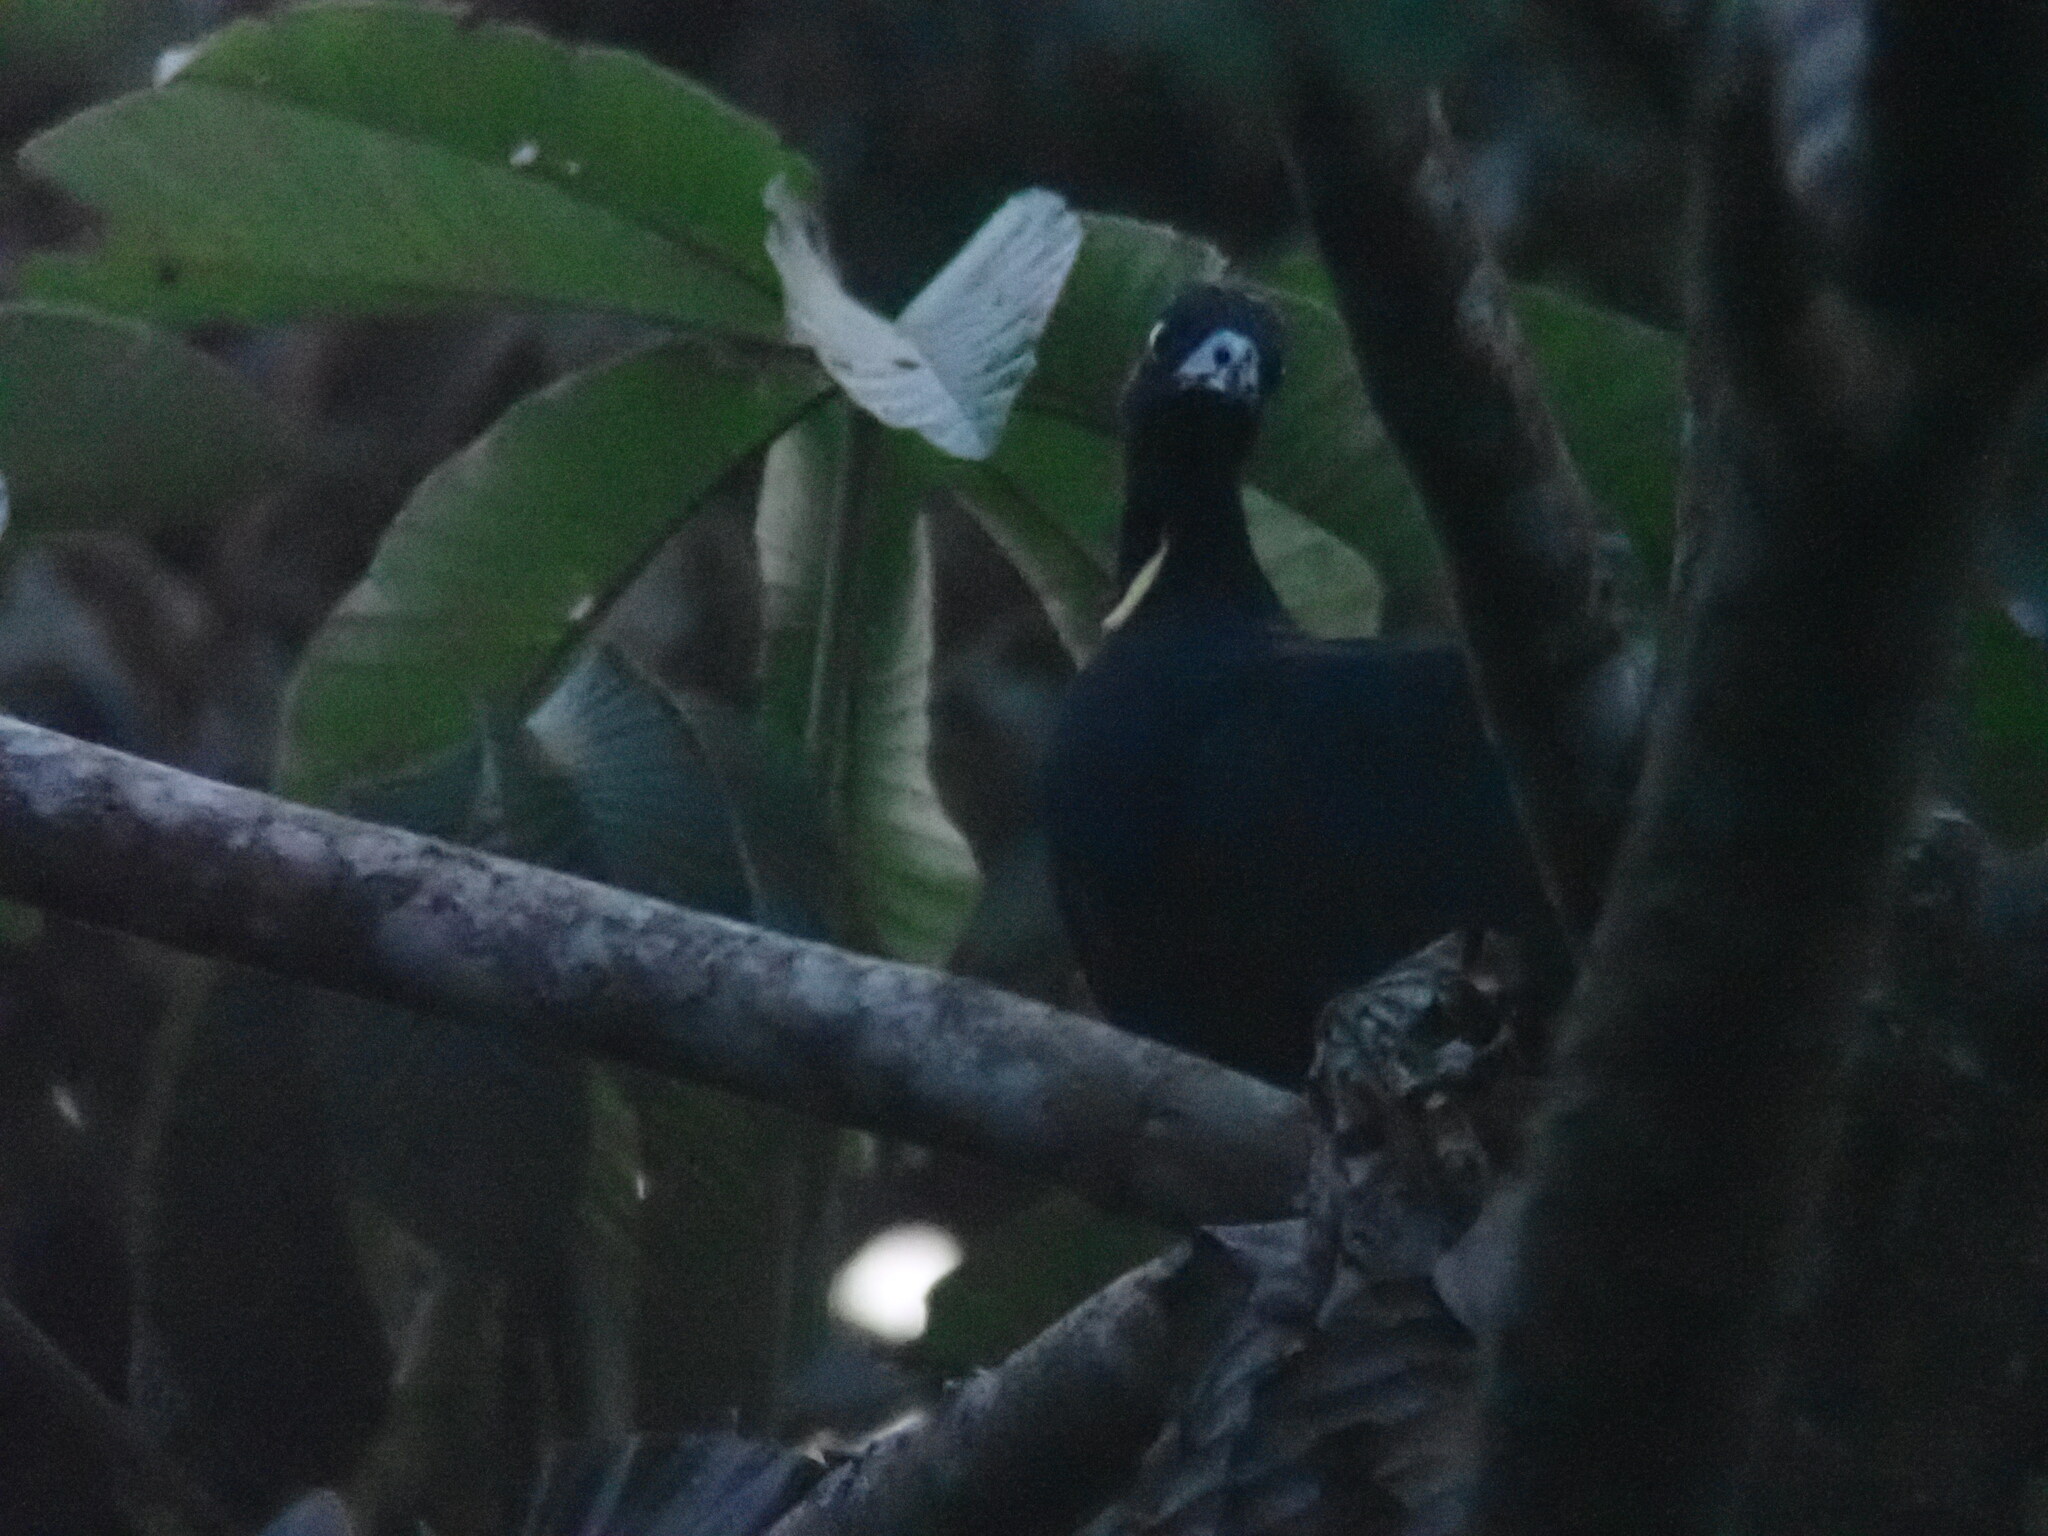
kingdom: Animalia
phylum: Chordata
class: Aves
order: Galliformes
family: Cracidae
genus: Aburria
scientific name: Aburria aburri
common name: Wattled guan
